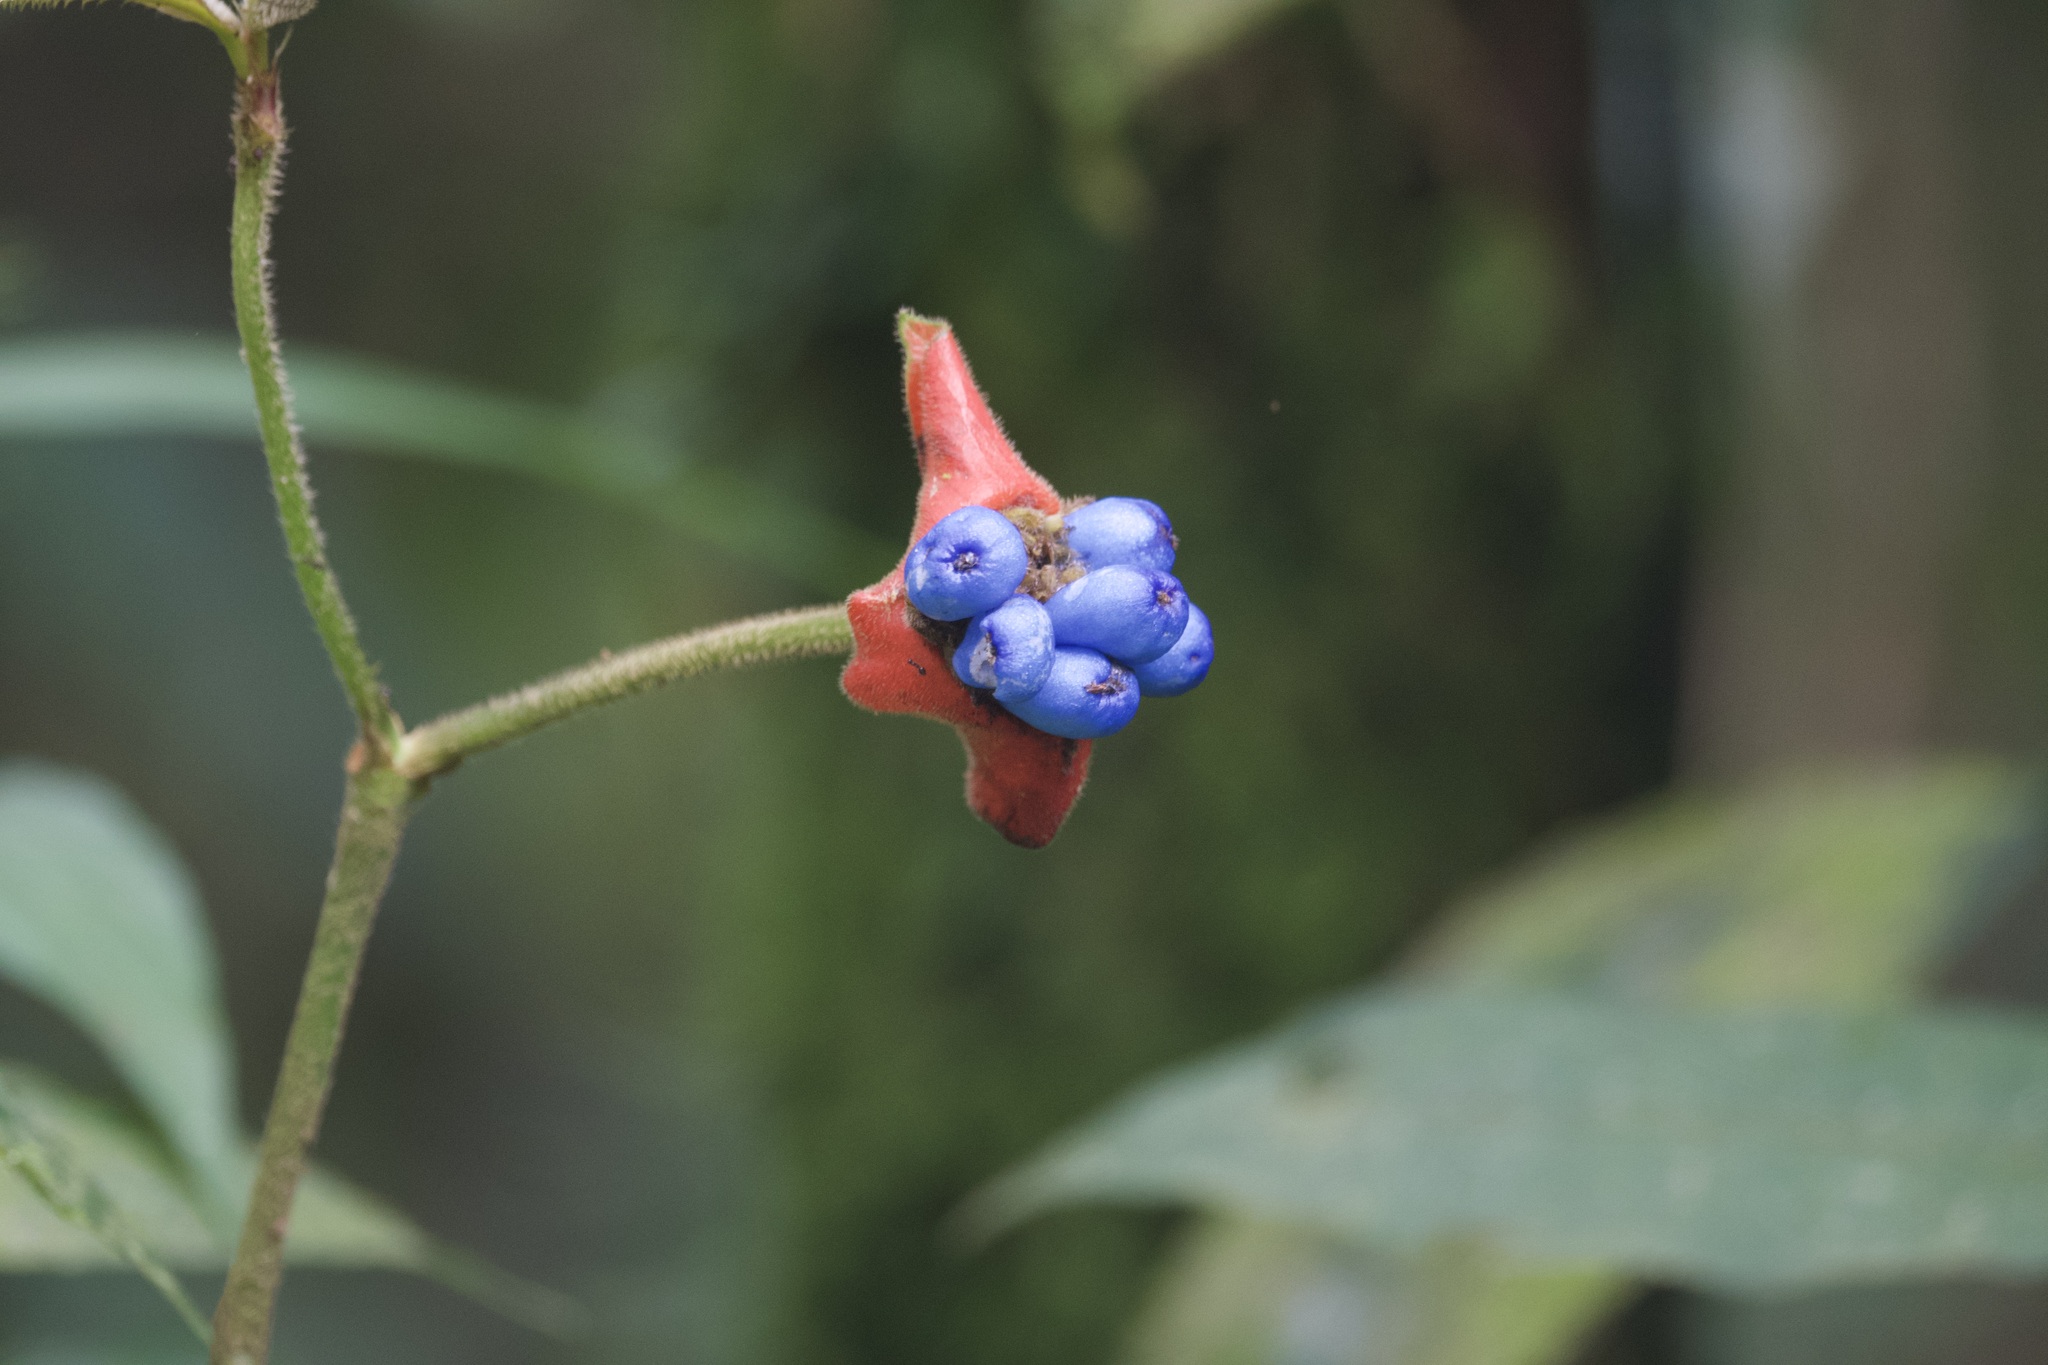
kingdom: Plantae
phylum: Tracheophyta
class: Magnoliopsida
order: Gentianales
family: Rubiaceae
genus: Palicourea
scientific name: Palicourea tomentosa
